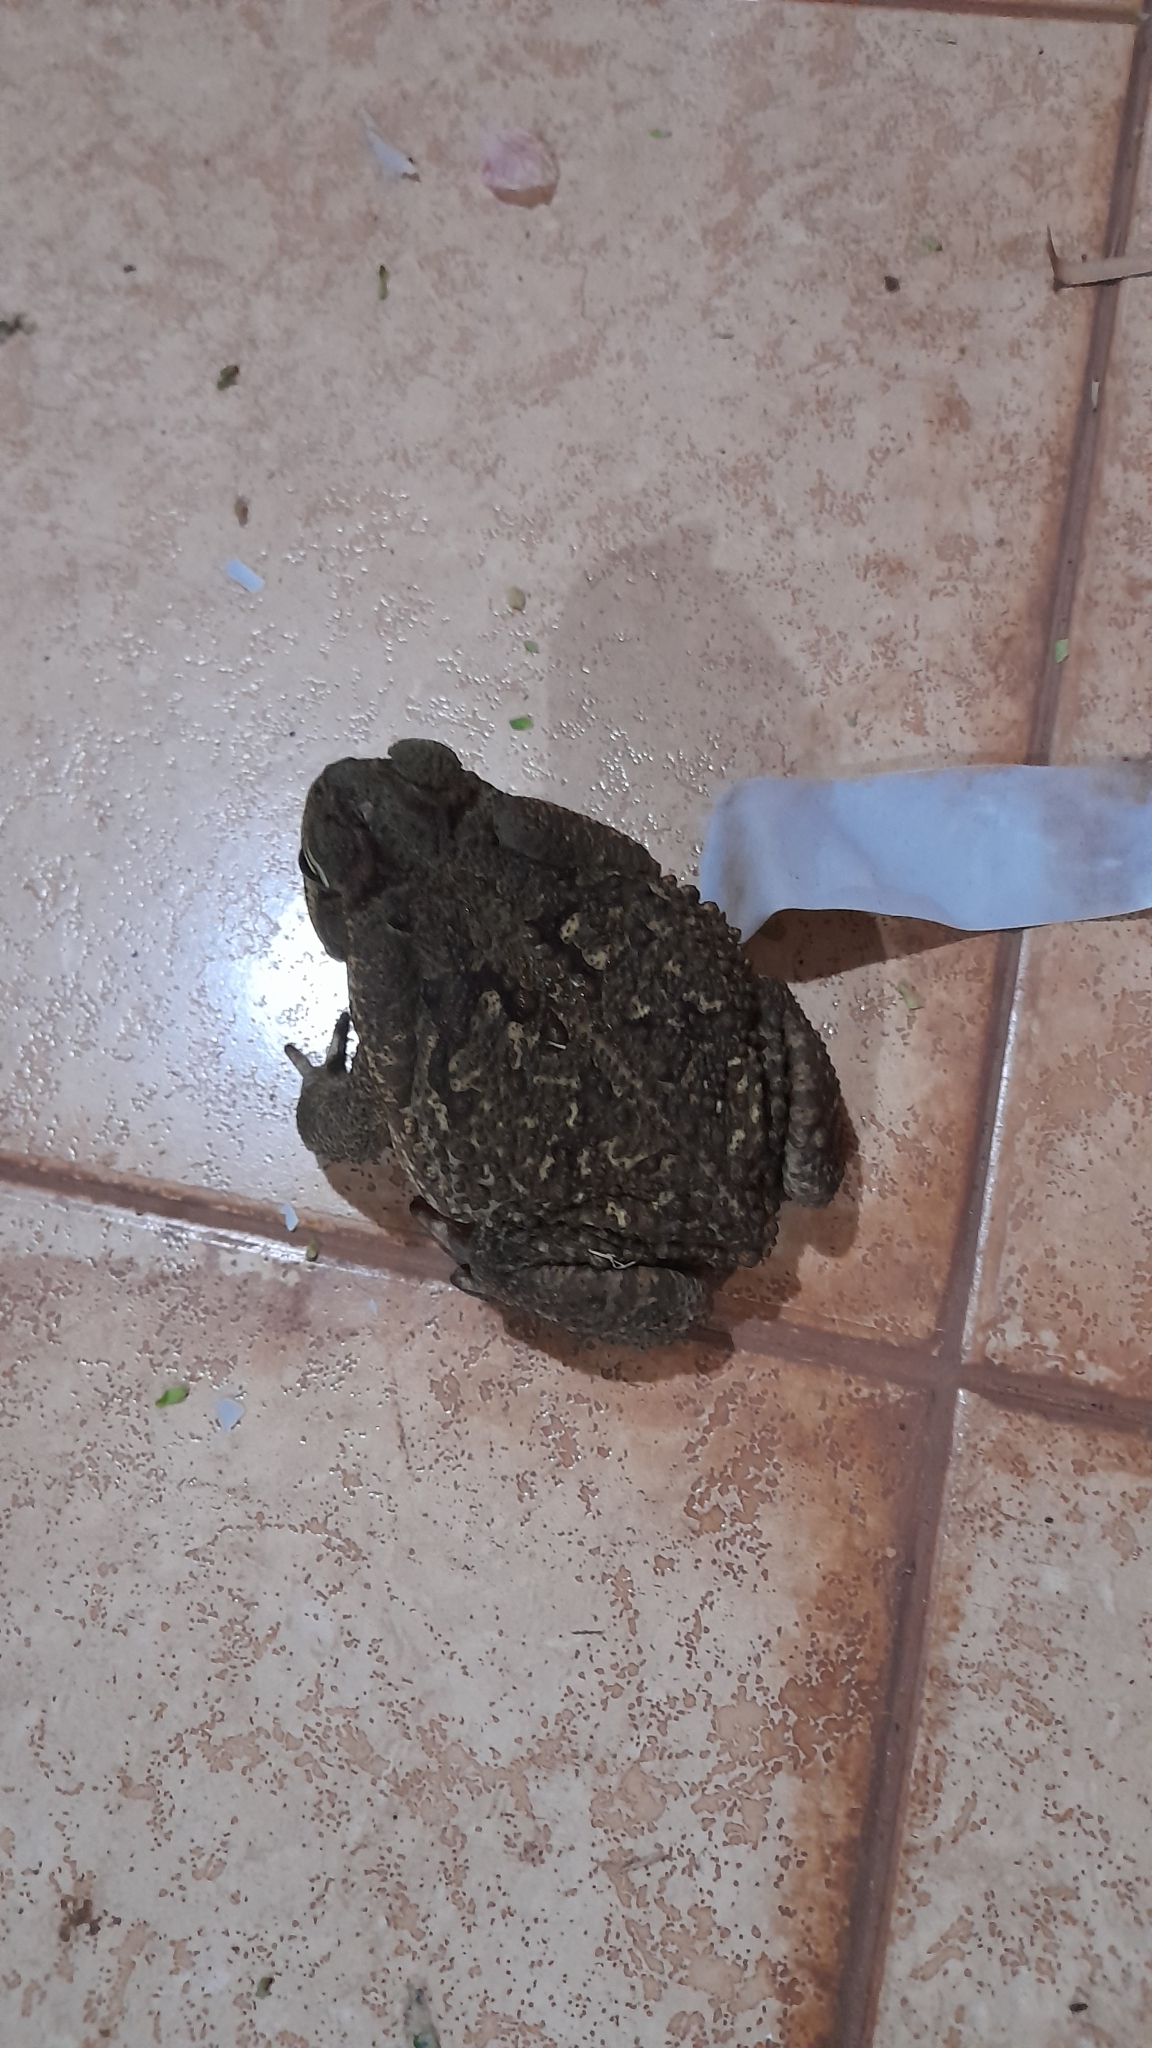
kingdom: Animalia
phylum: Chordata
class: Amphibia
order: Anura
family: Bufonidae
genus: Rhinella
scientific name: Rhinella diptycha
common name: Cope's toad
